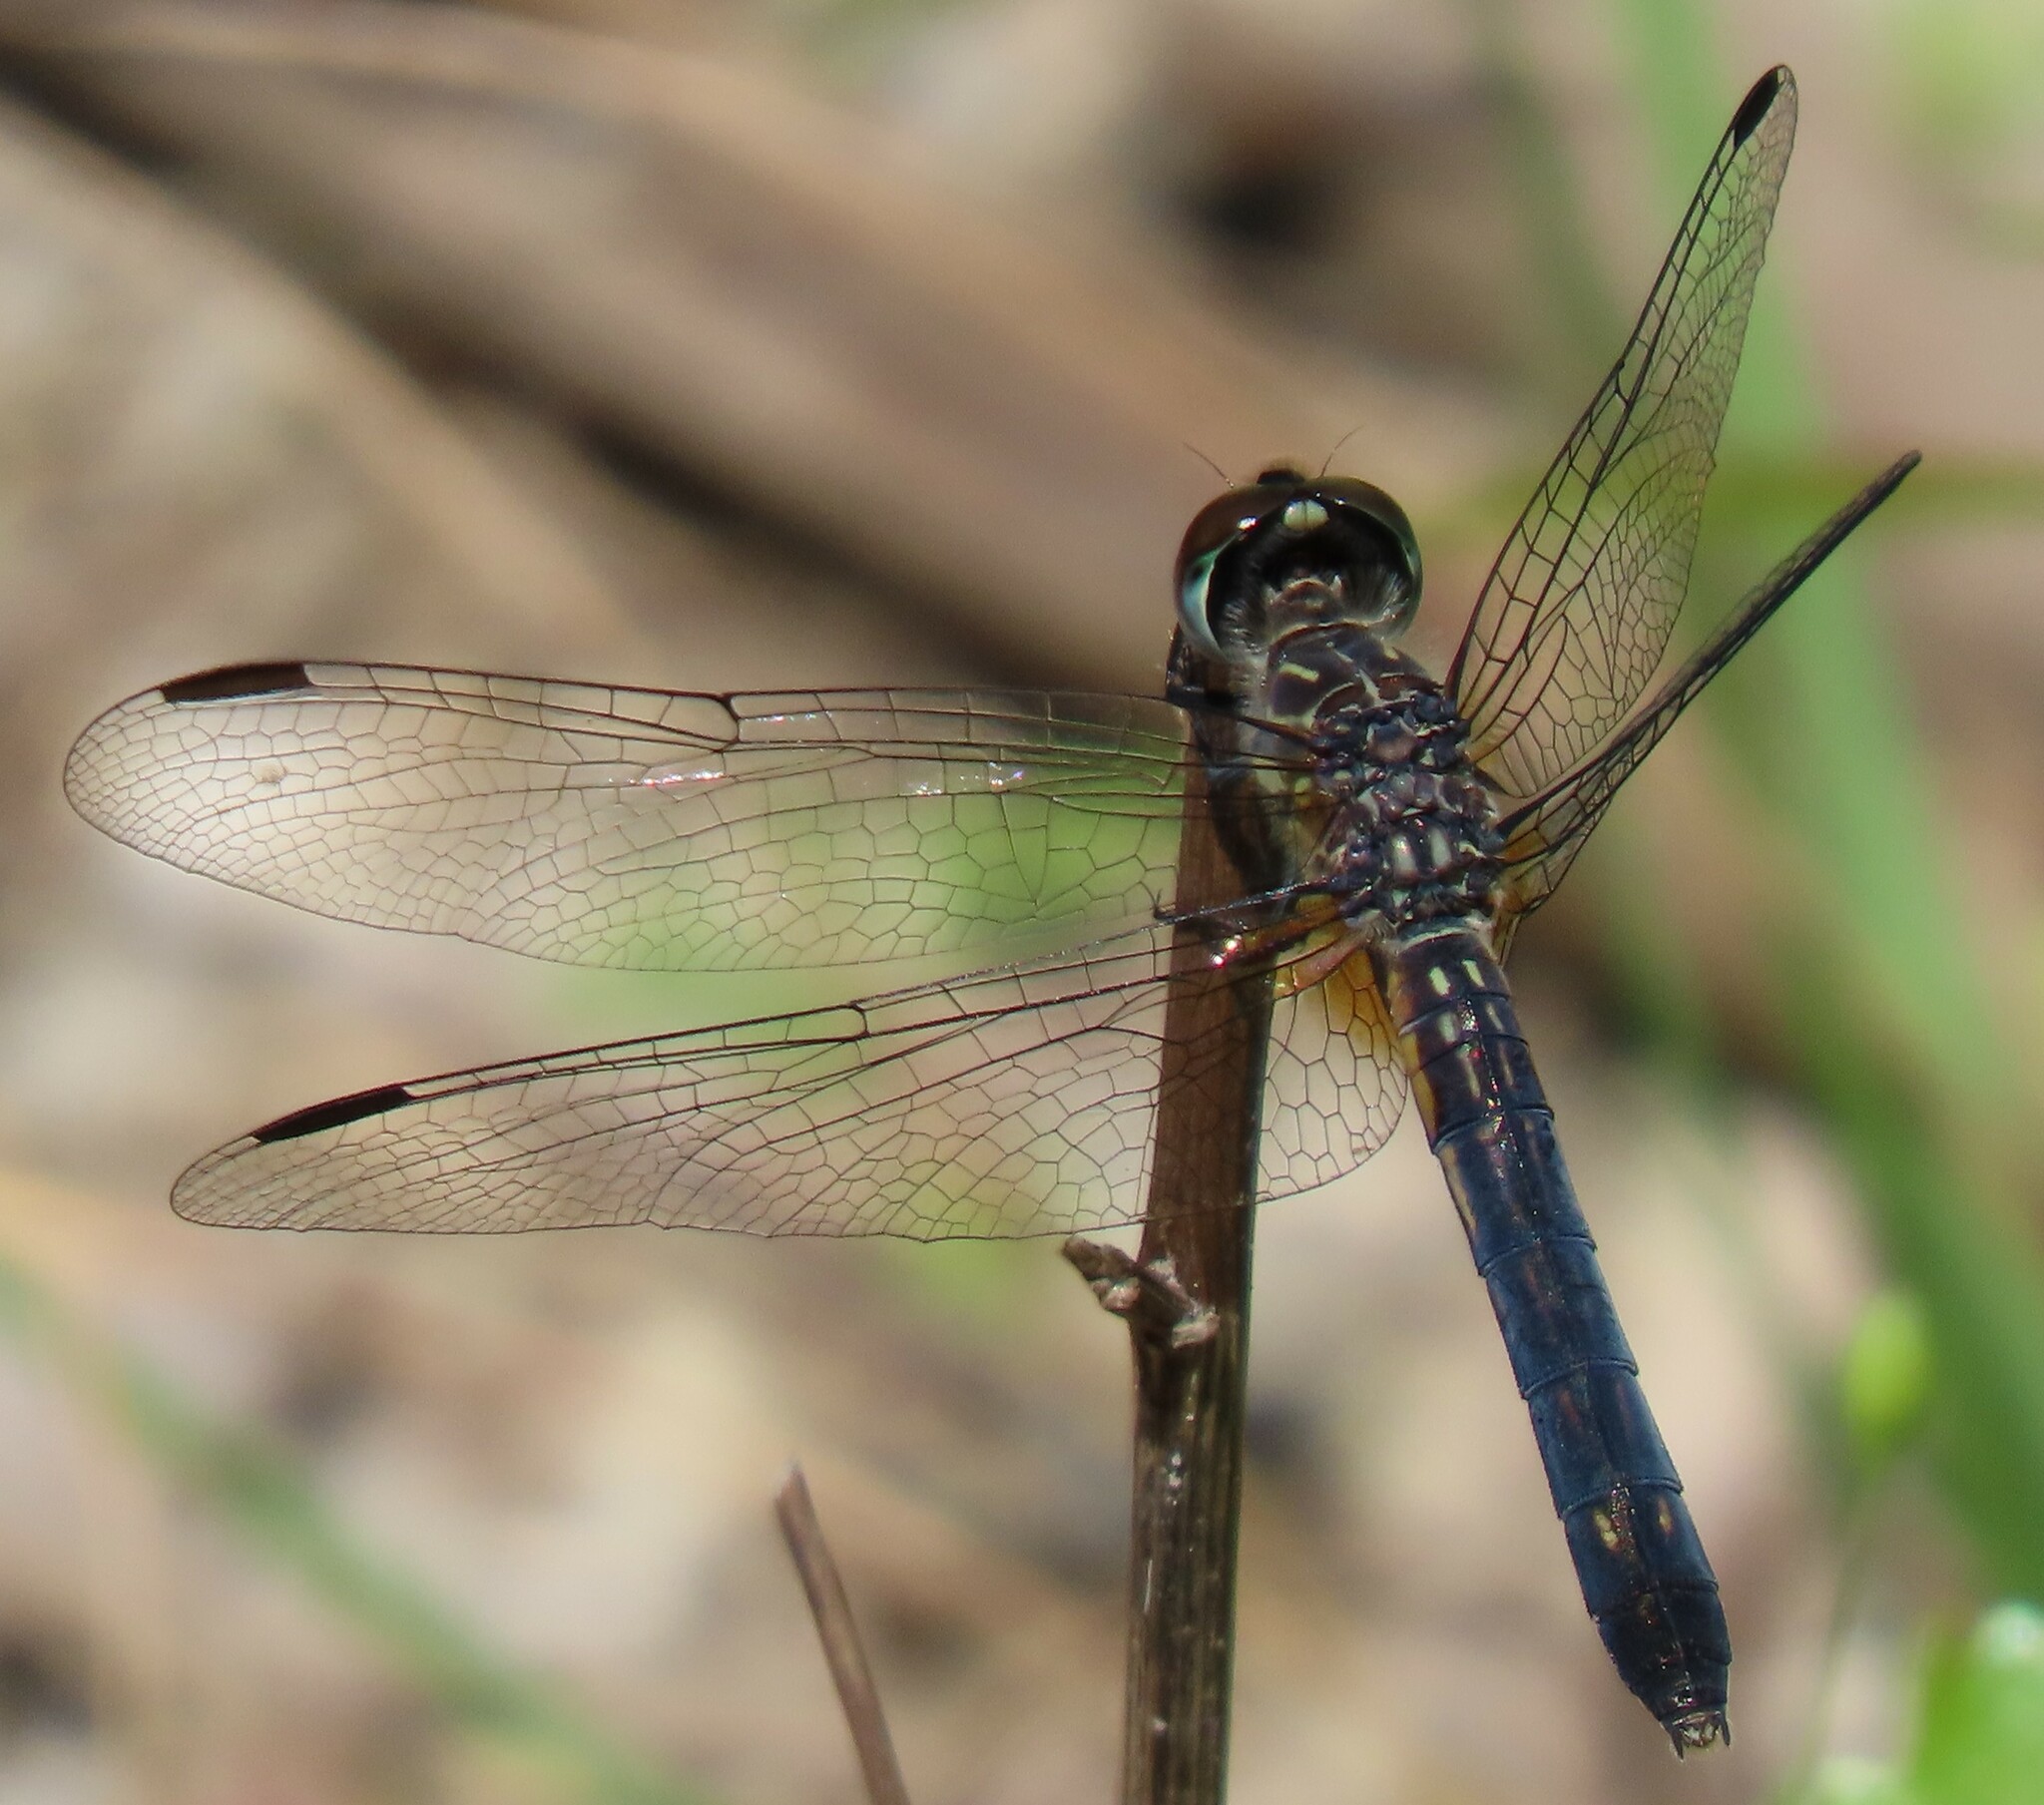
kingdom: Animalia
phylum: Arthropoda
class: Insecta
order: Odonata
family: Libellulidae
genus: Pachydiplax
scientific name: Pachydiplax longipennis
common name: Blue dasher
